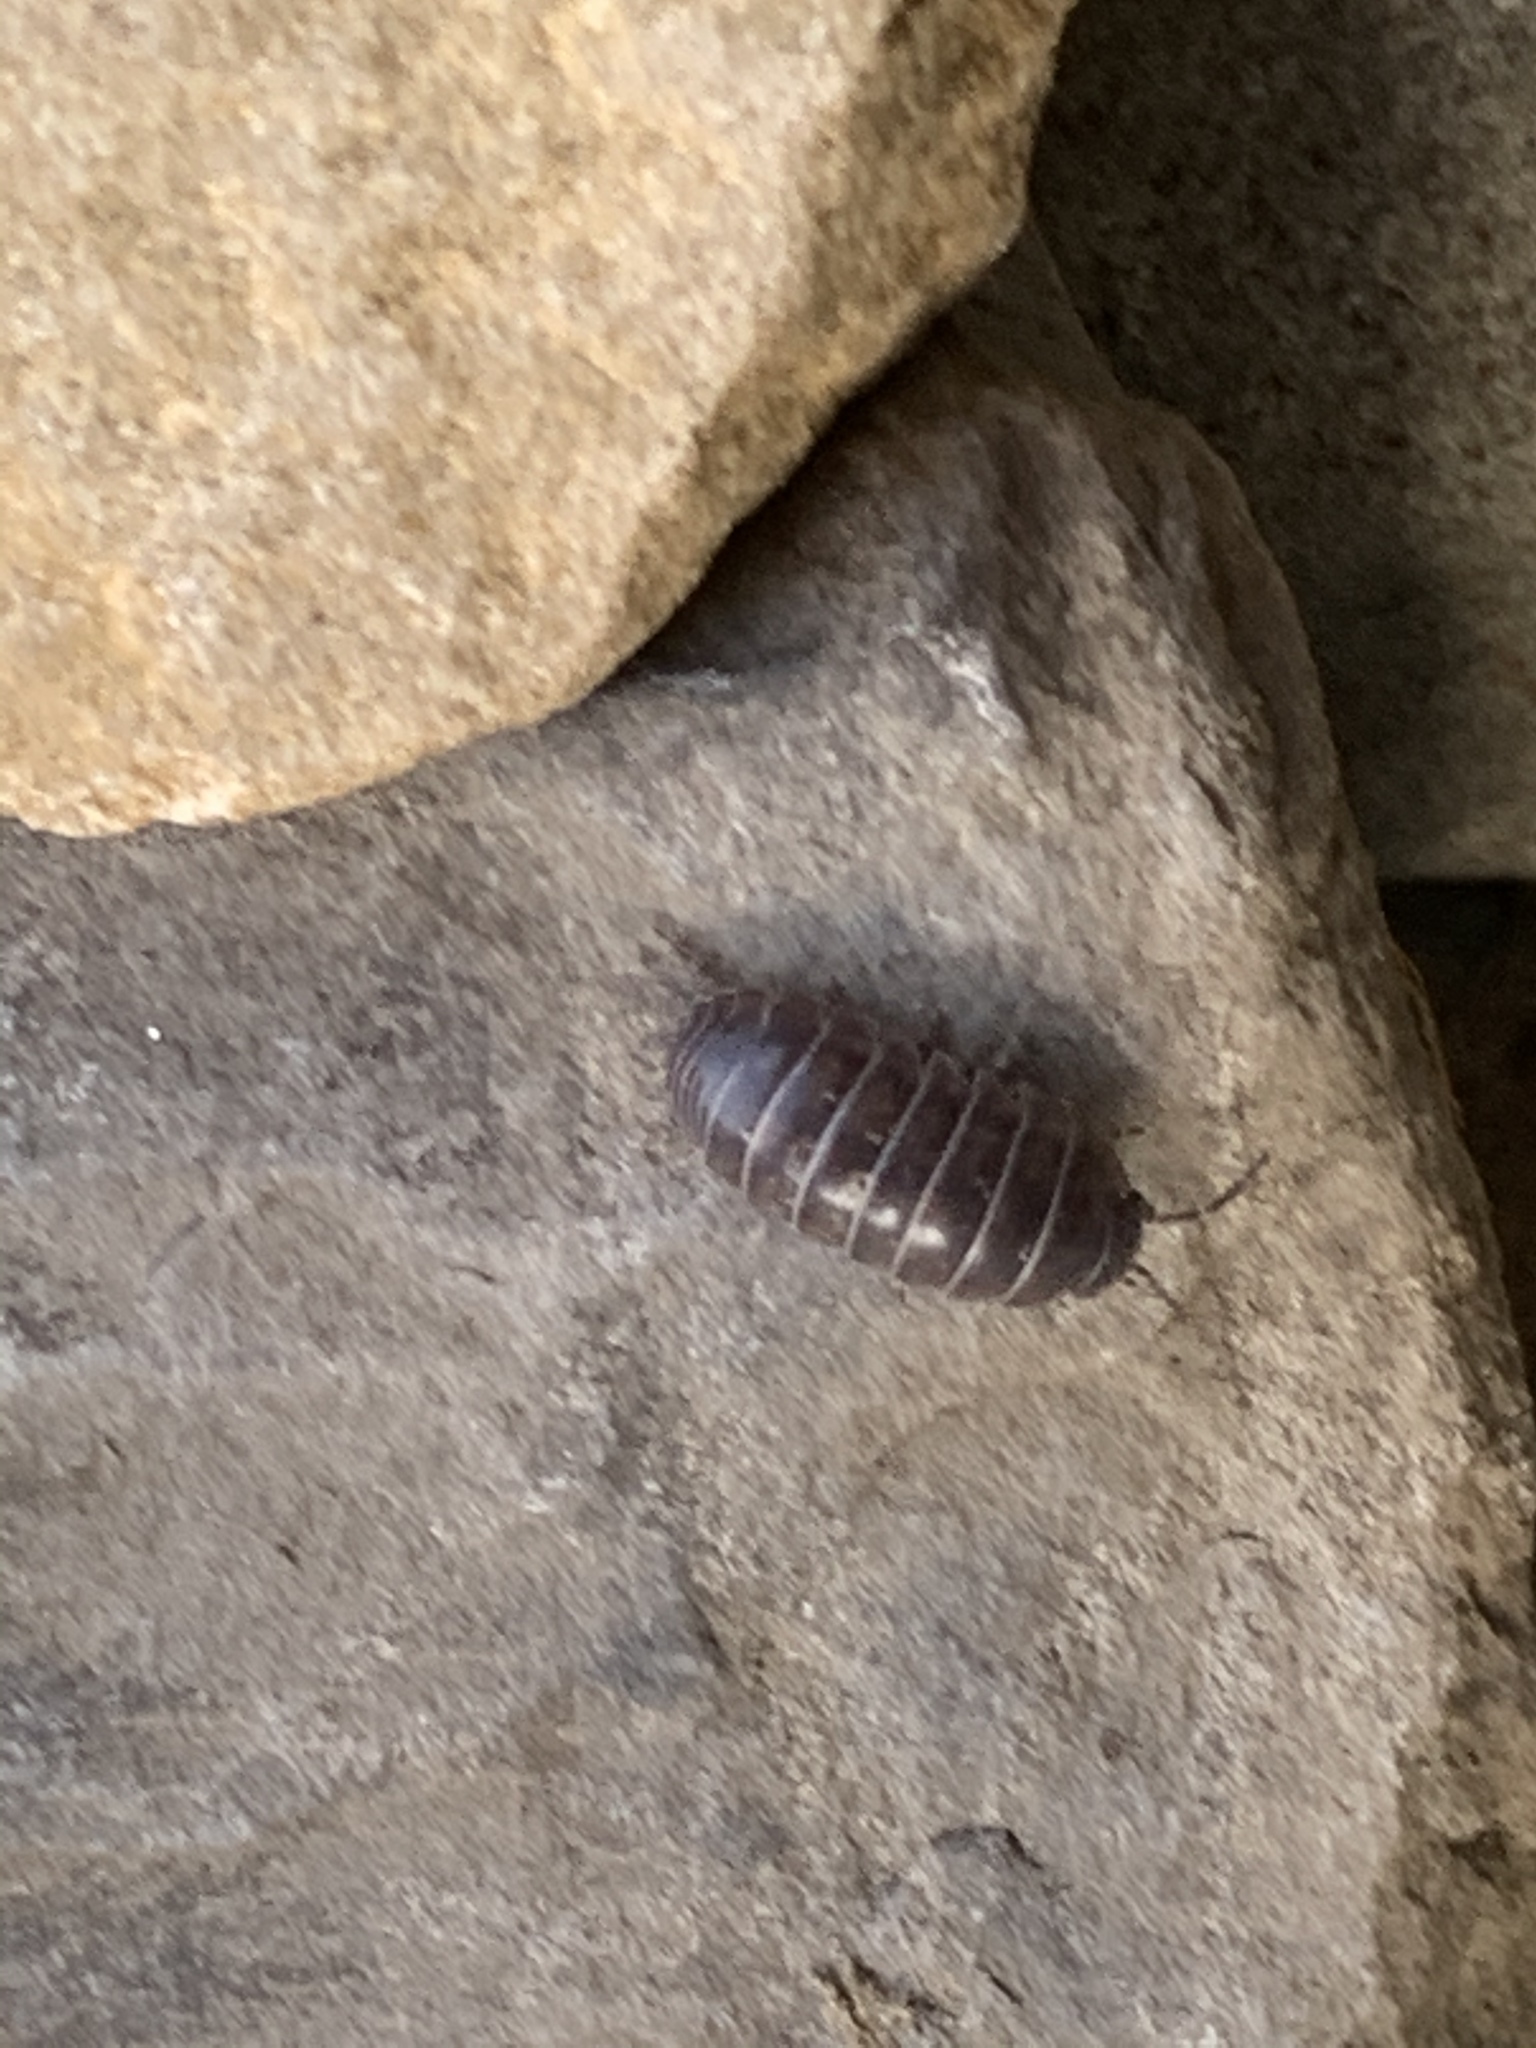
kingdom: Animalia
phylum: Arthropoda
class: Malacostraca
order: Isopoda
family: Armadillidiidae
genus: Armadillidium
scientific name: Armadillidium vulgare
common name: Common pill woodlouse
